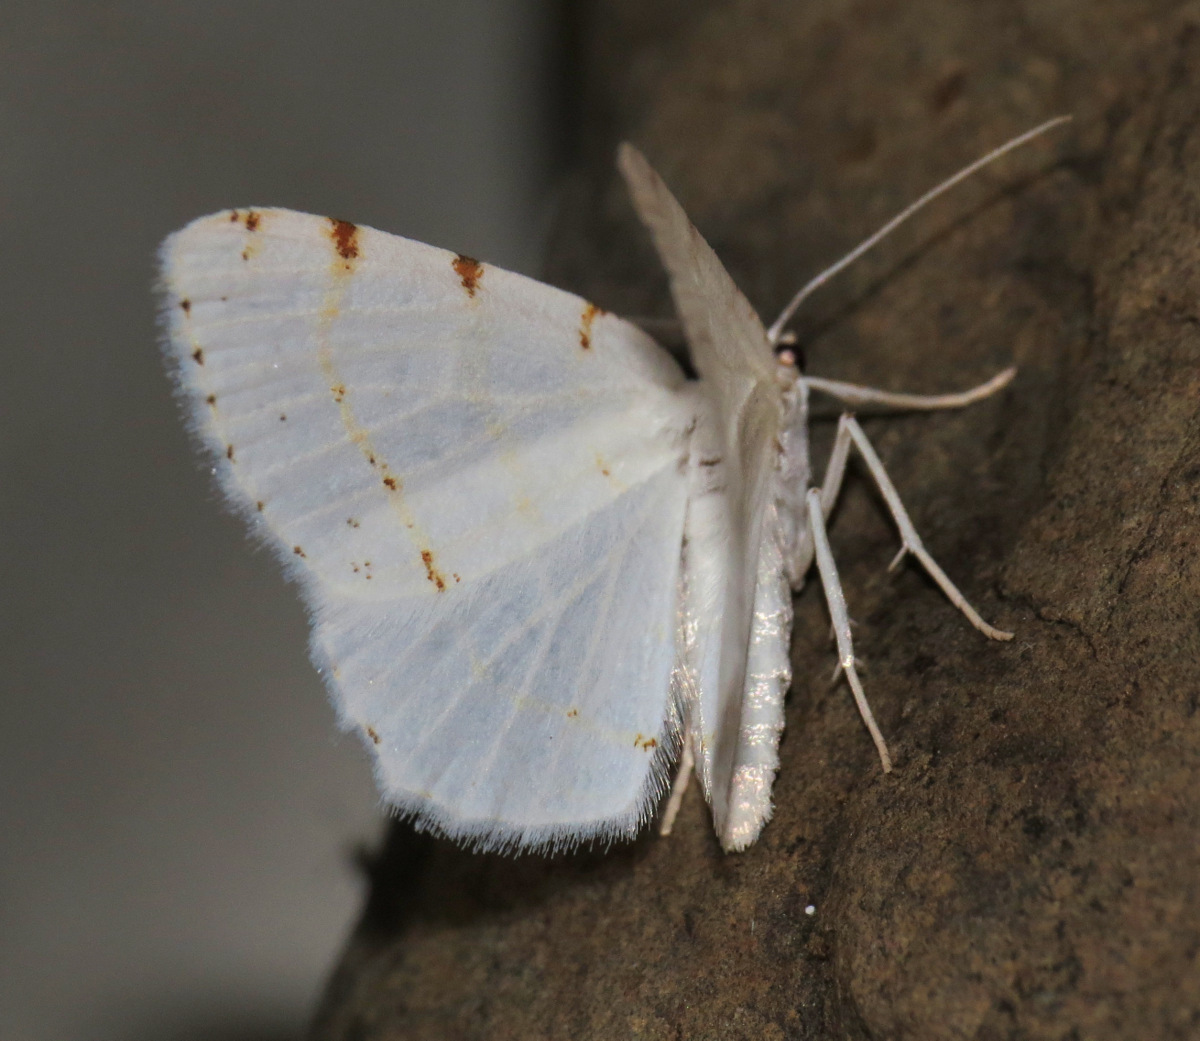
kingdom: Animalia
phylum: Arthropoda
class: Insecta
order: Lepidoptera
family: Geometridae
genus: Macaria
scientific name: Macaria pustularia
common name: Lesser maple spanworm moth
